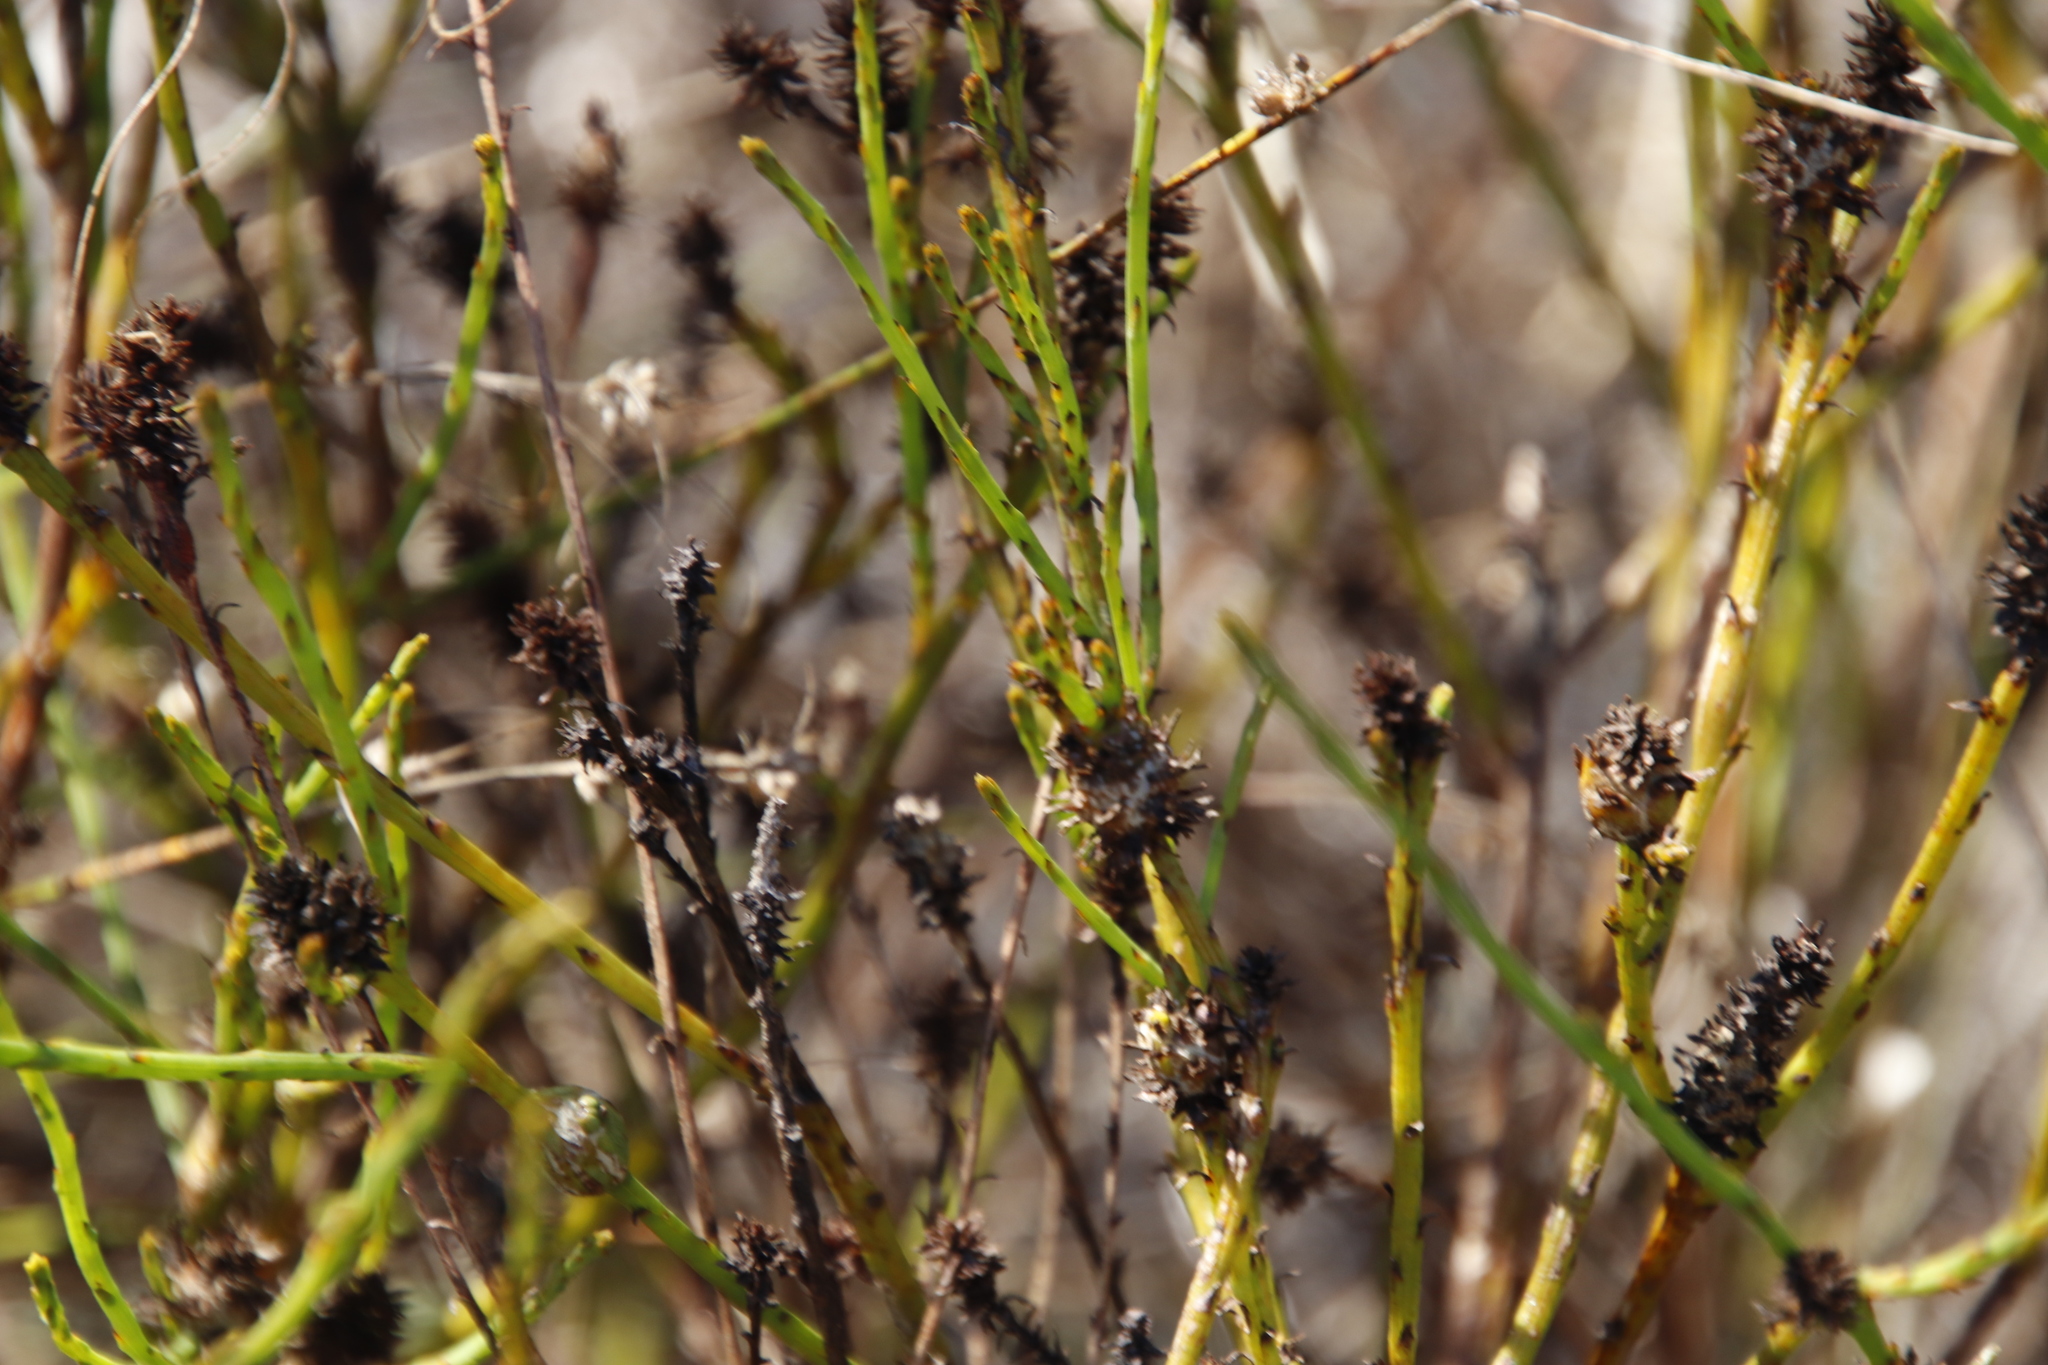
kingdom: Plantae
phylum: Tracheophyta
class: Magnoliopsida
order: Santalales
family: Thesiaceae
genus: Thesium
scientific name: Thesium aggregatum
